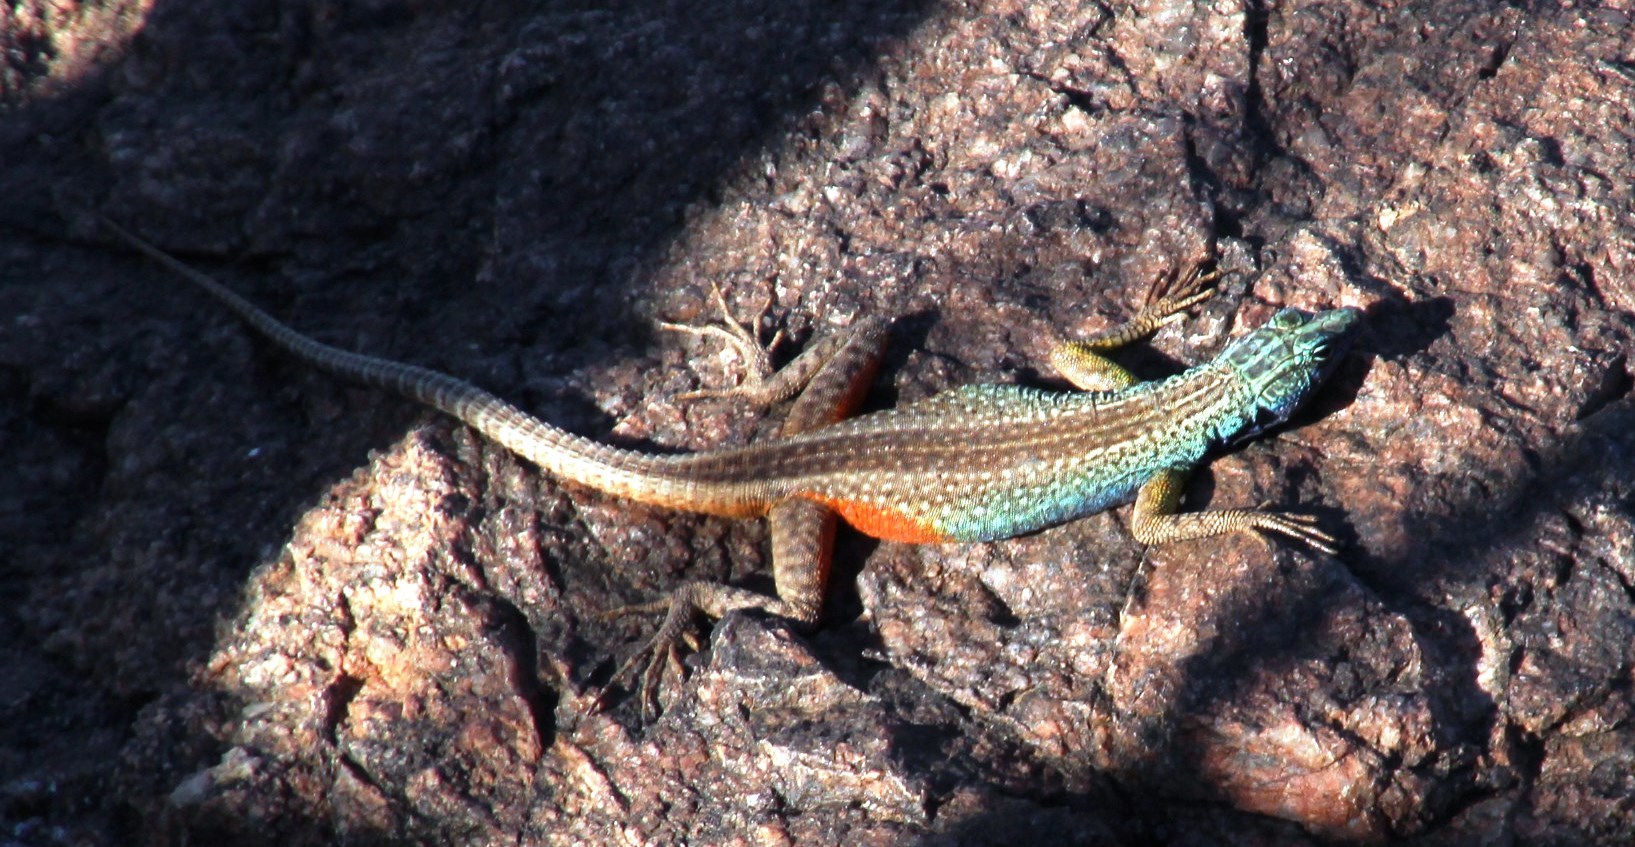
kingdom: Animalia
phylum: Chordata
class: Squamata
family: Cordylidae
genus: Platysaurus
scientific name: Platysaurus broadleyi
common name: Augrabies flat lizard
